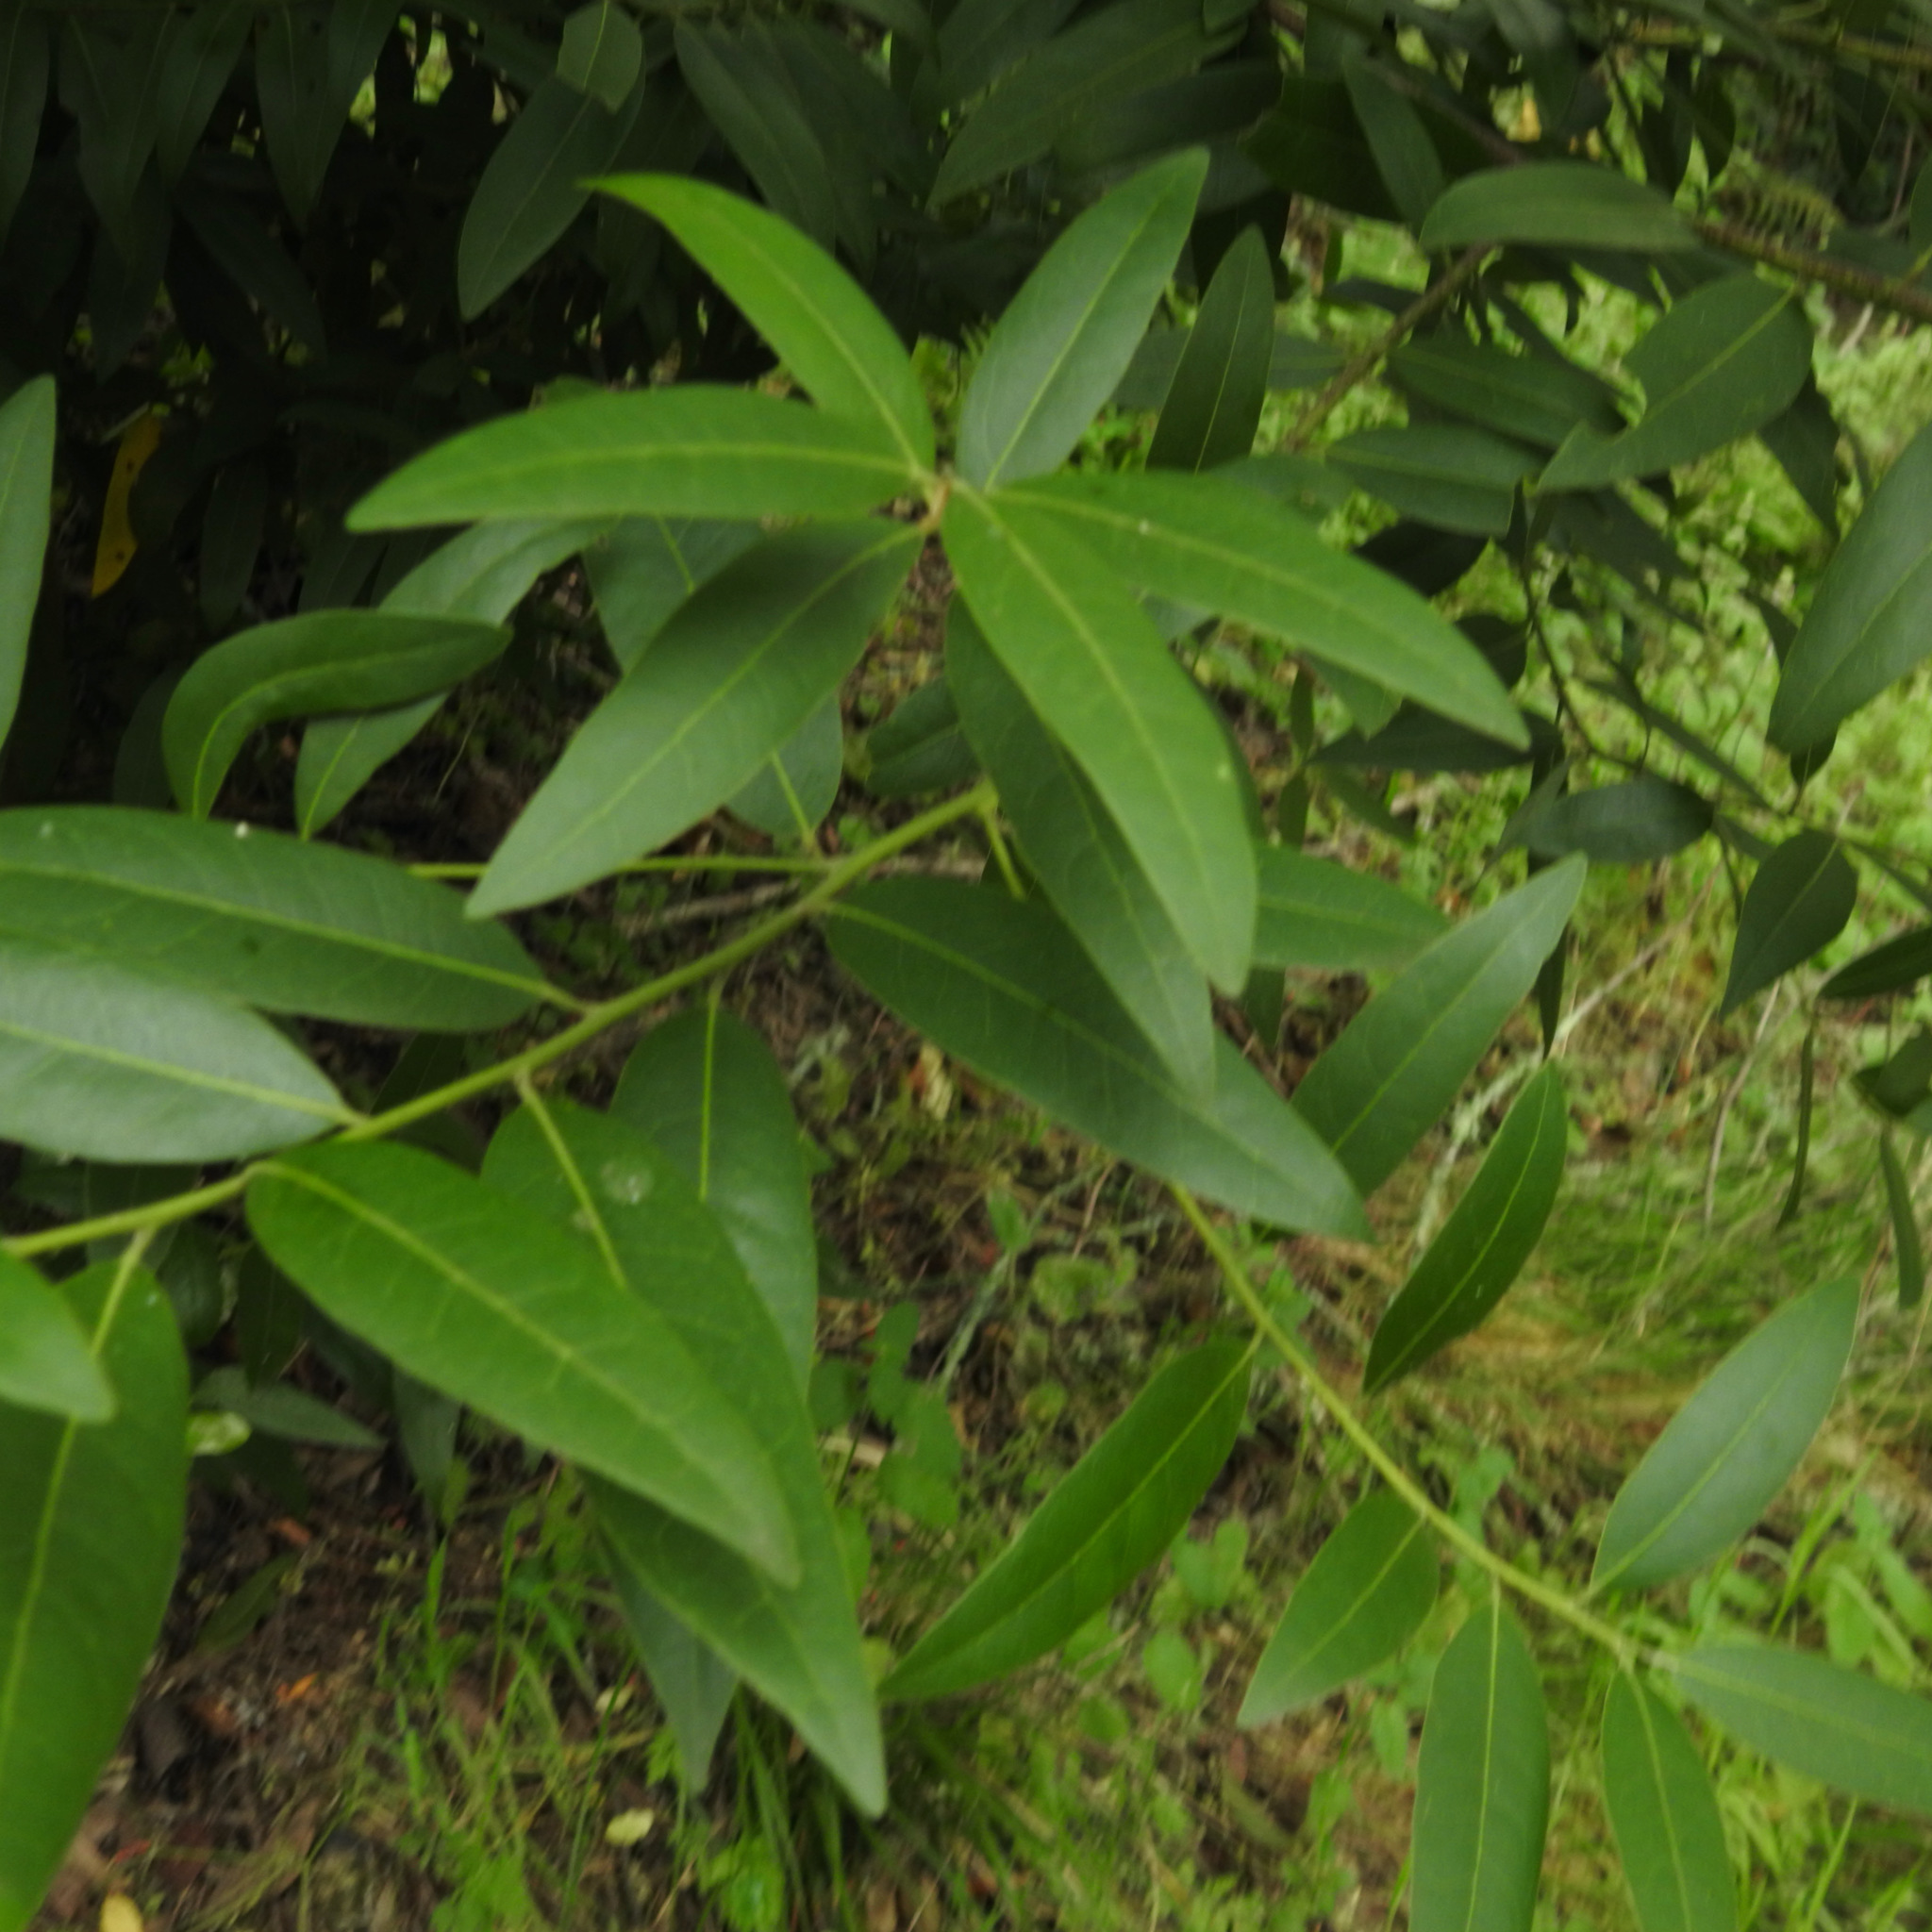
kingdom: Plantae
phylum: Tracheophyta
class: Magnoliopsida
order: Laurales
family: Lauraceae
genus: Umbellularia
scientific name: Umbellularia californica
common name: California bay
